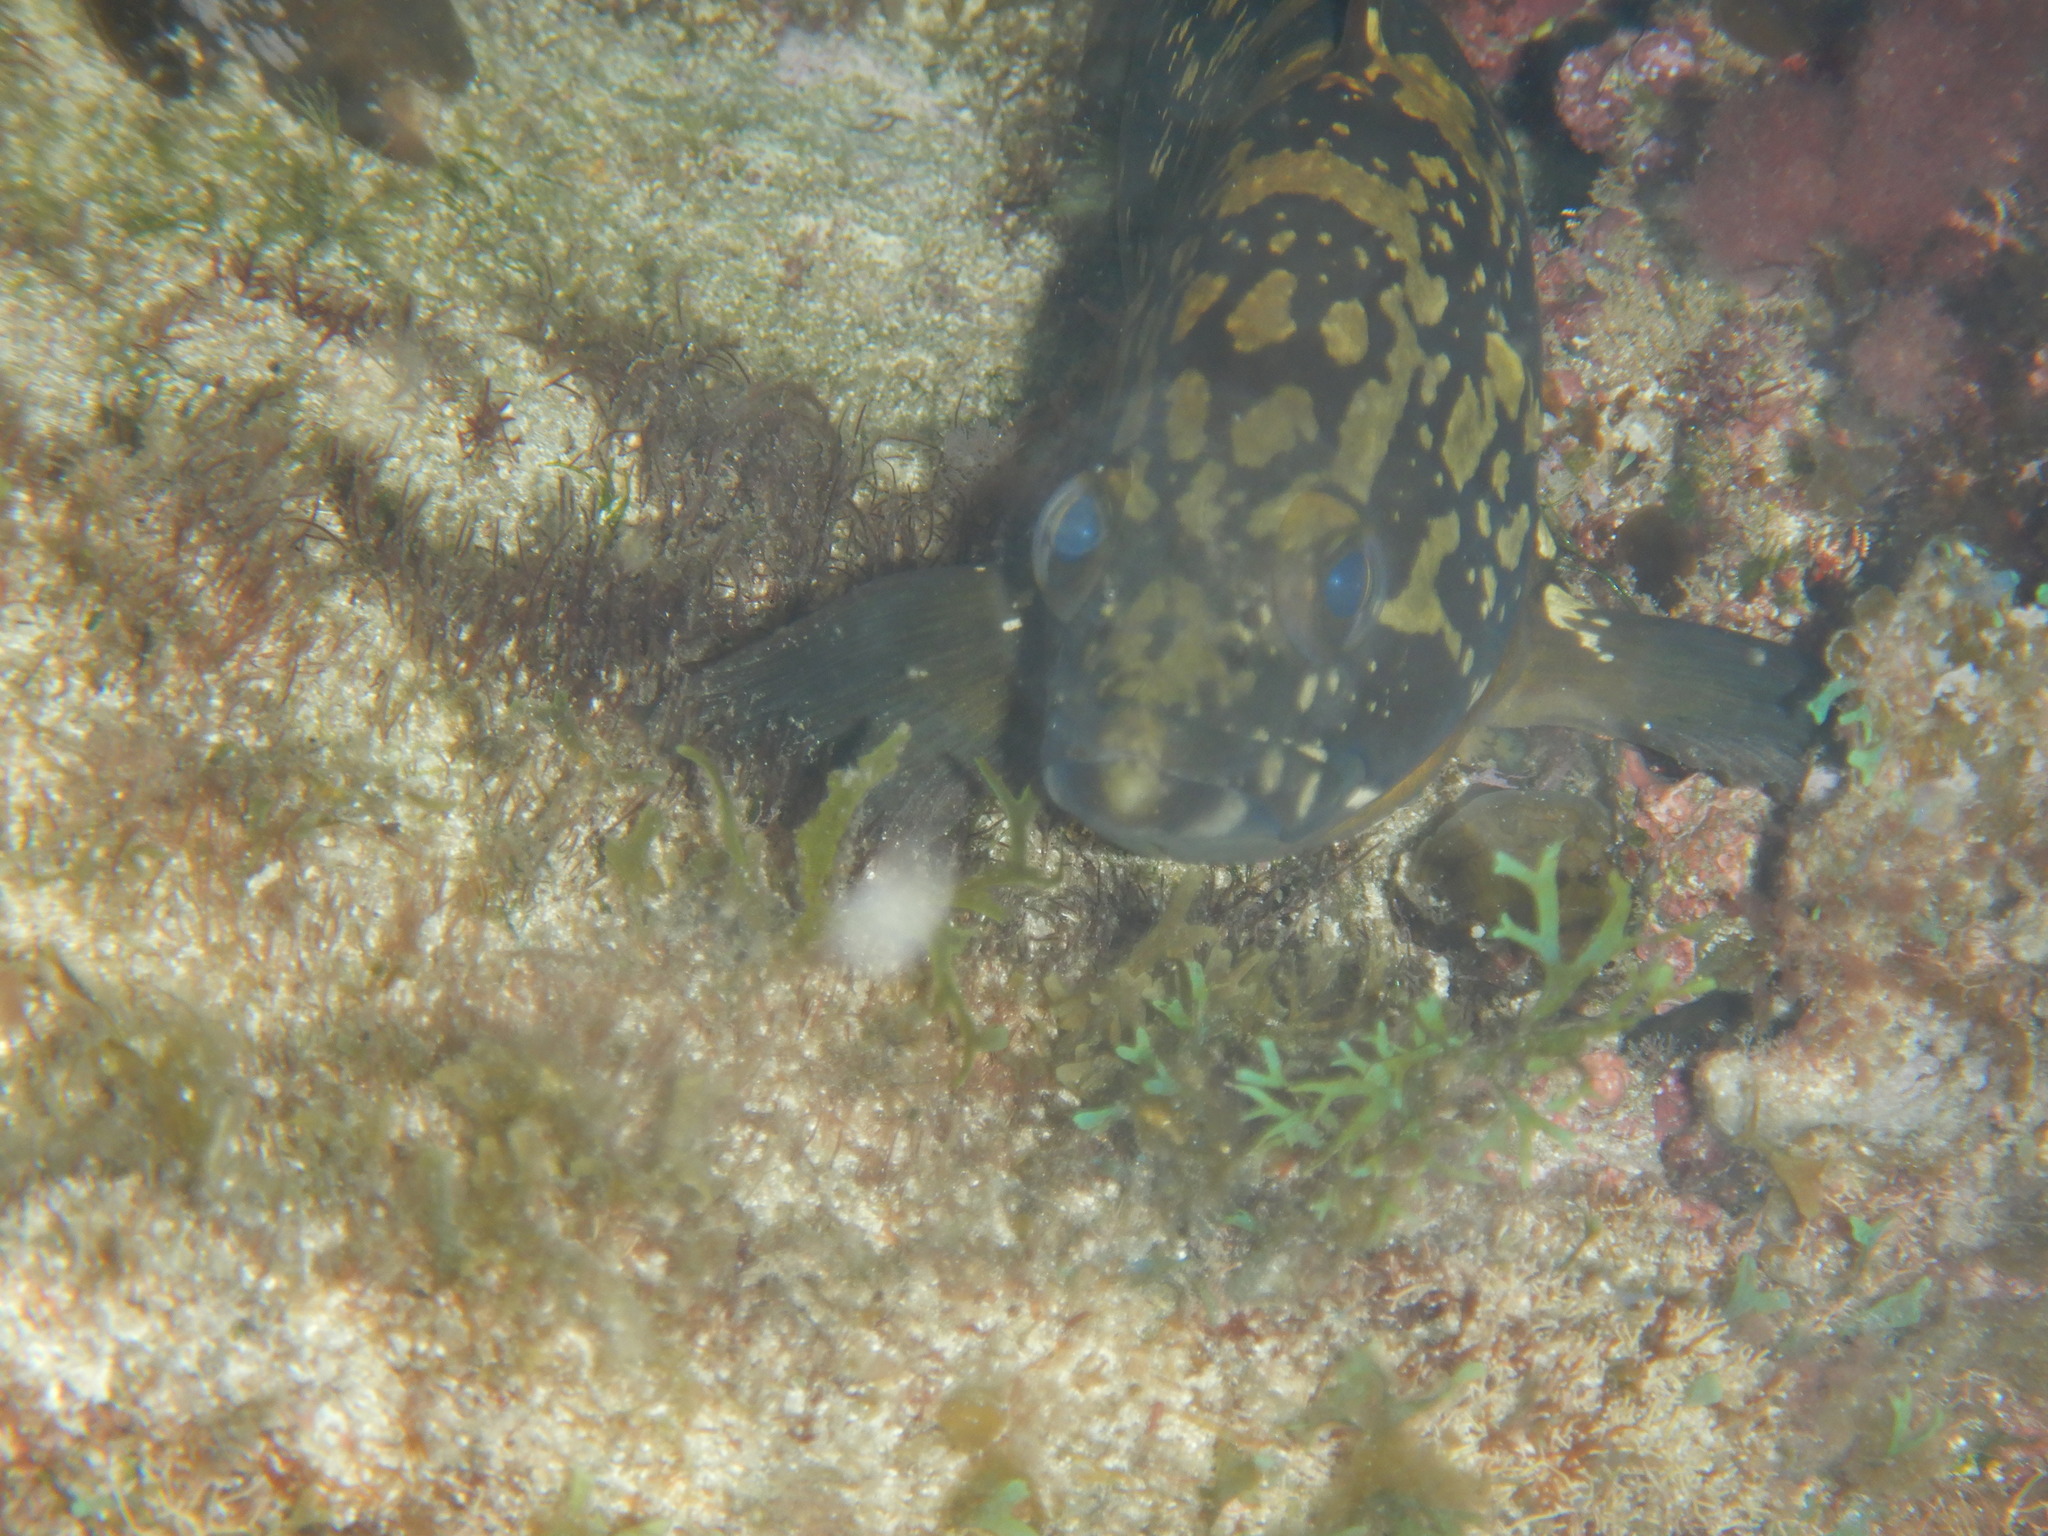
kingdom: Animalia
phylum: Chordata
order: Perciformes
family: Serranidae
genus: Epinephelus
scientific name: Epinephelus marginatus
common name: Dusky grouper
